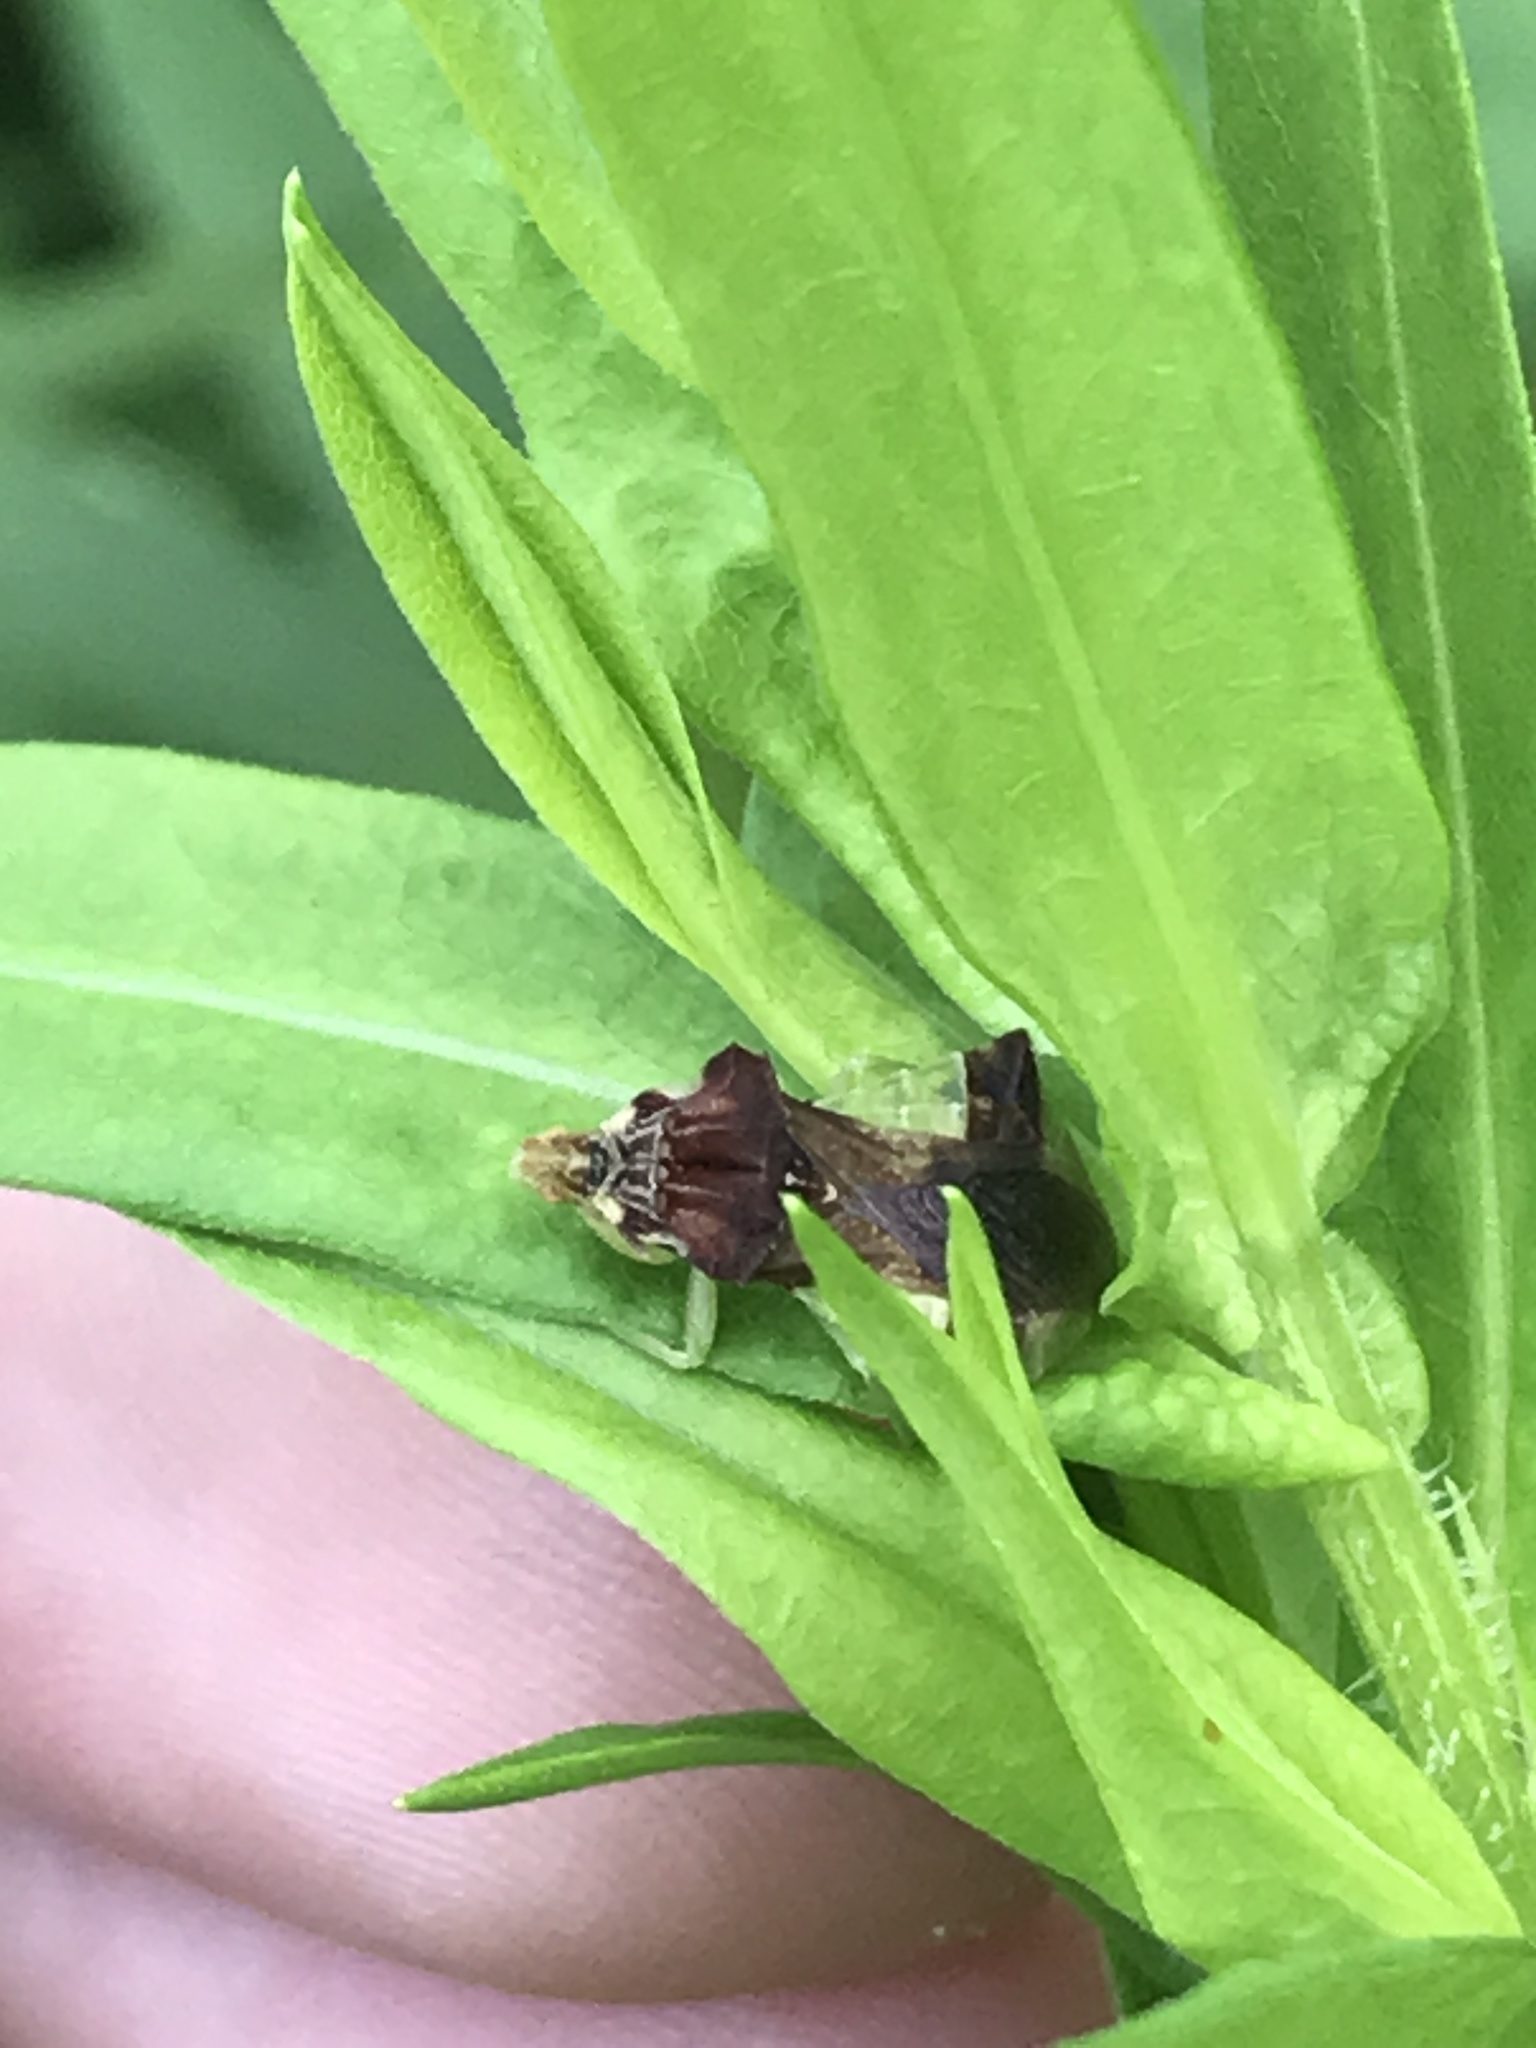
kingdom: Animalia
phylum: Arthropoda
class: Insecta
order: Hemiptera
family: Reduviidae
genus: Phymata
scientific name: Phymata pennsylvanica
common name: Pennsylvania ambush bug
